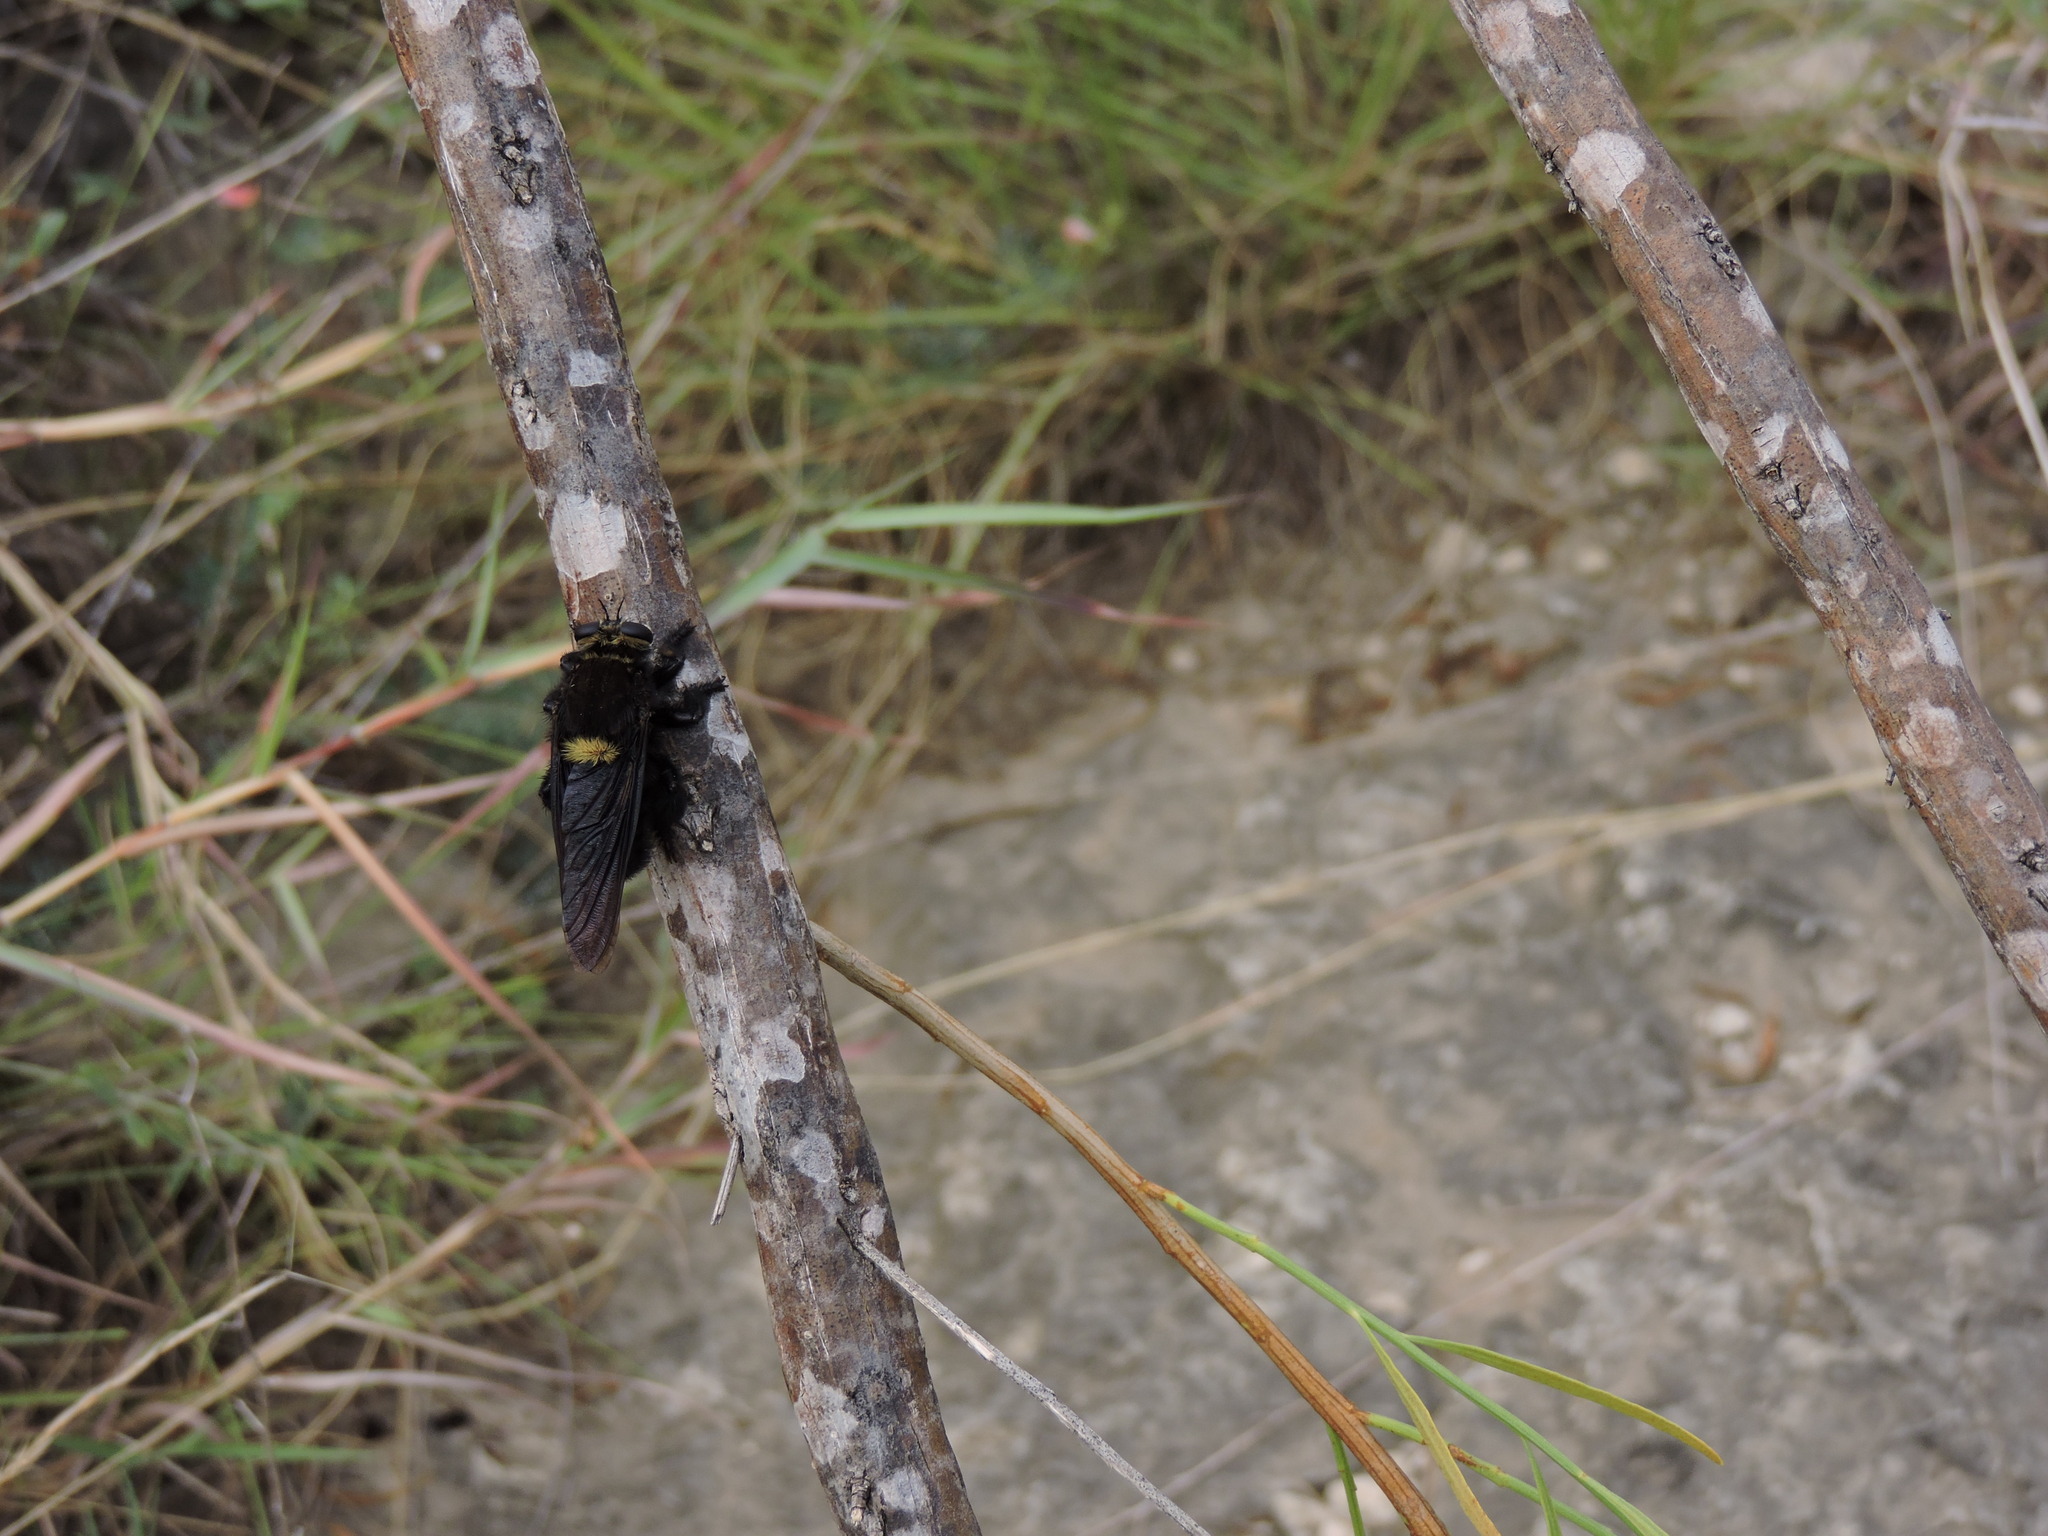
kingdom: Animalia
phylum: Arthropoda
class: Insecta
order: Diptera
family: Asilidae
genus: Mallophora
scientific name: Mallophora leschenaultii
